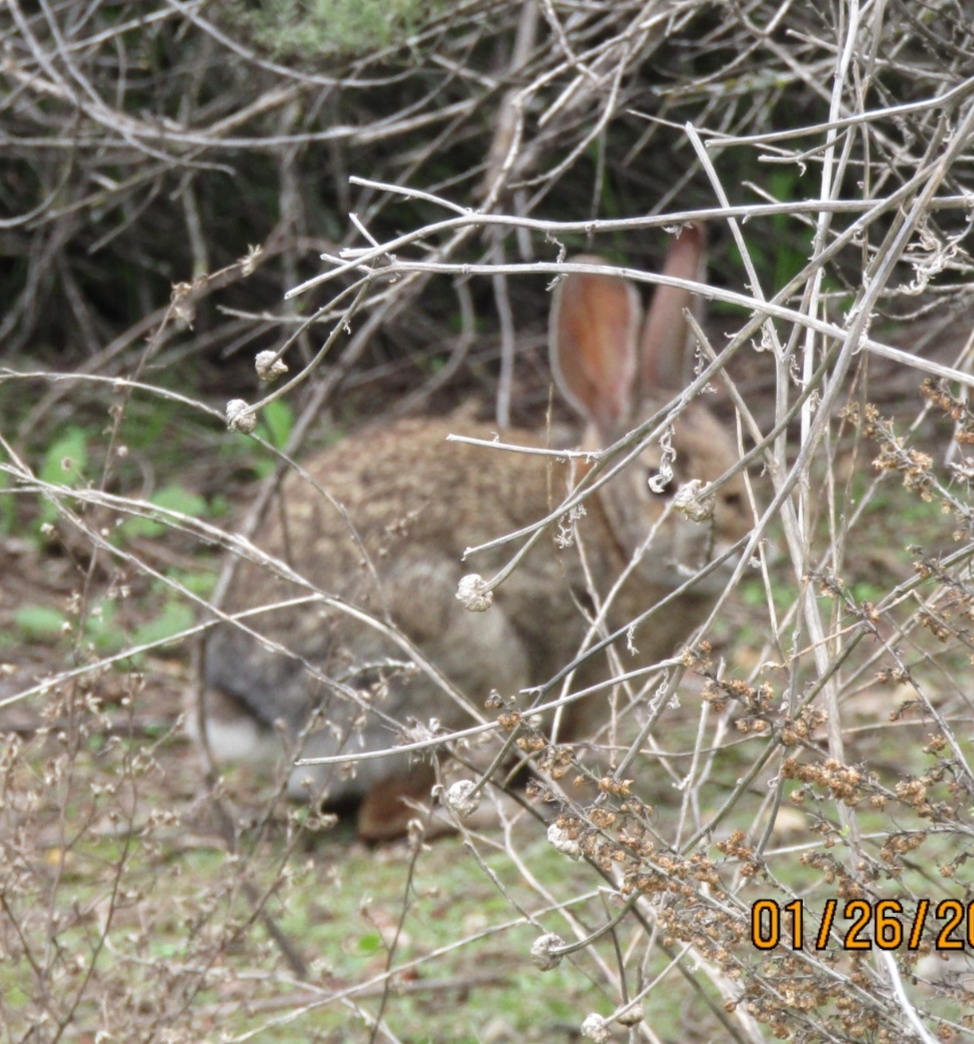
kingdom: Animalia
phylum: Chordata
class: Mammalia
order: Lagomorpha
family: Leporidae
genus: Sylvilagus
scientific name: Sylvilagus audubonii
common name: Desert cottontail
